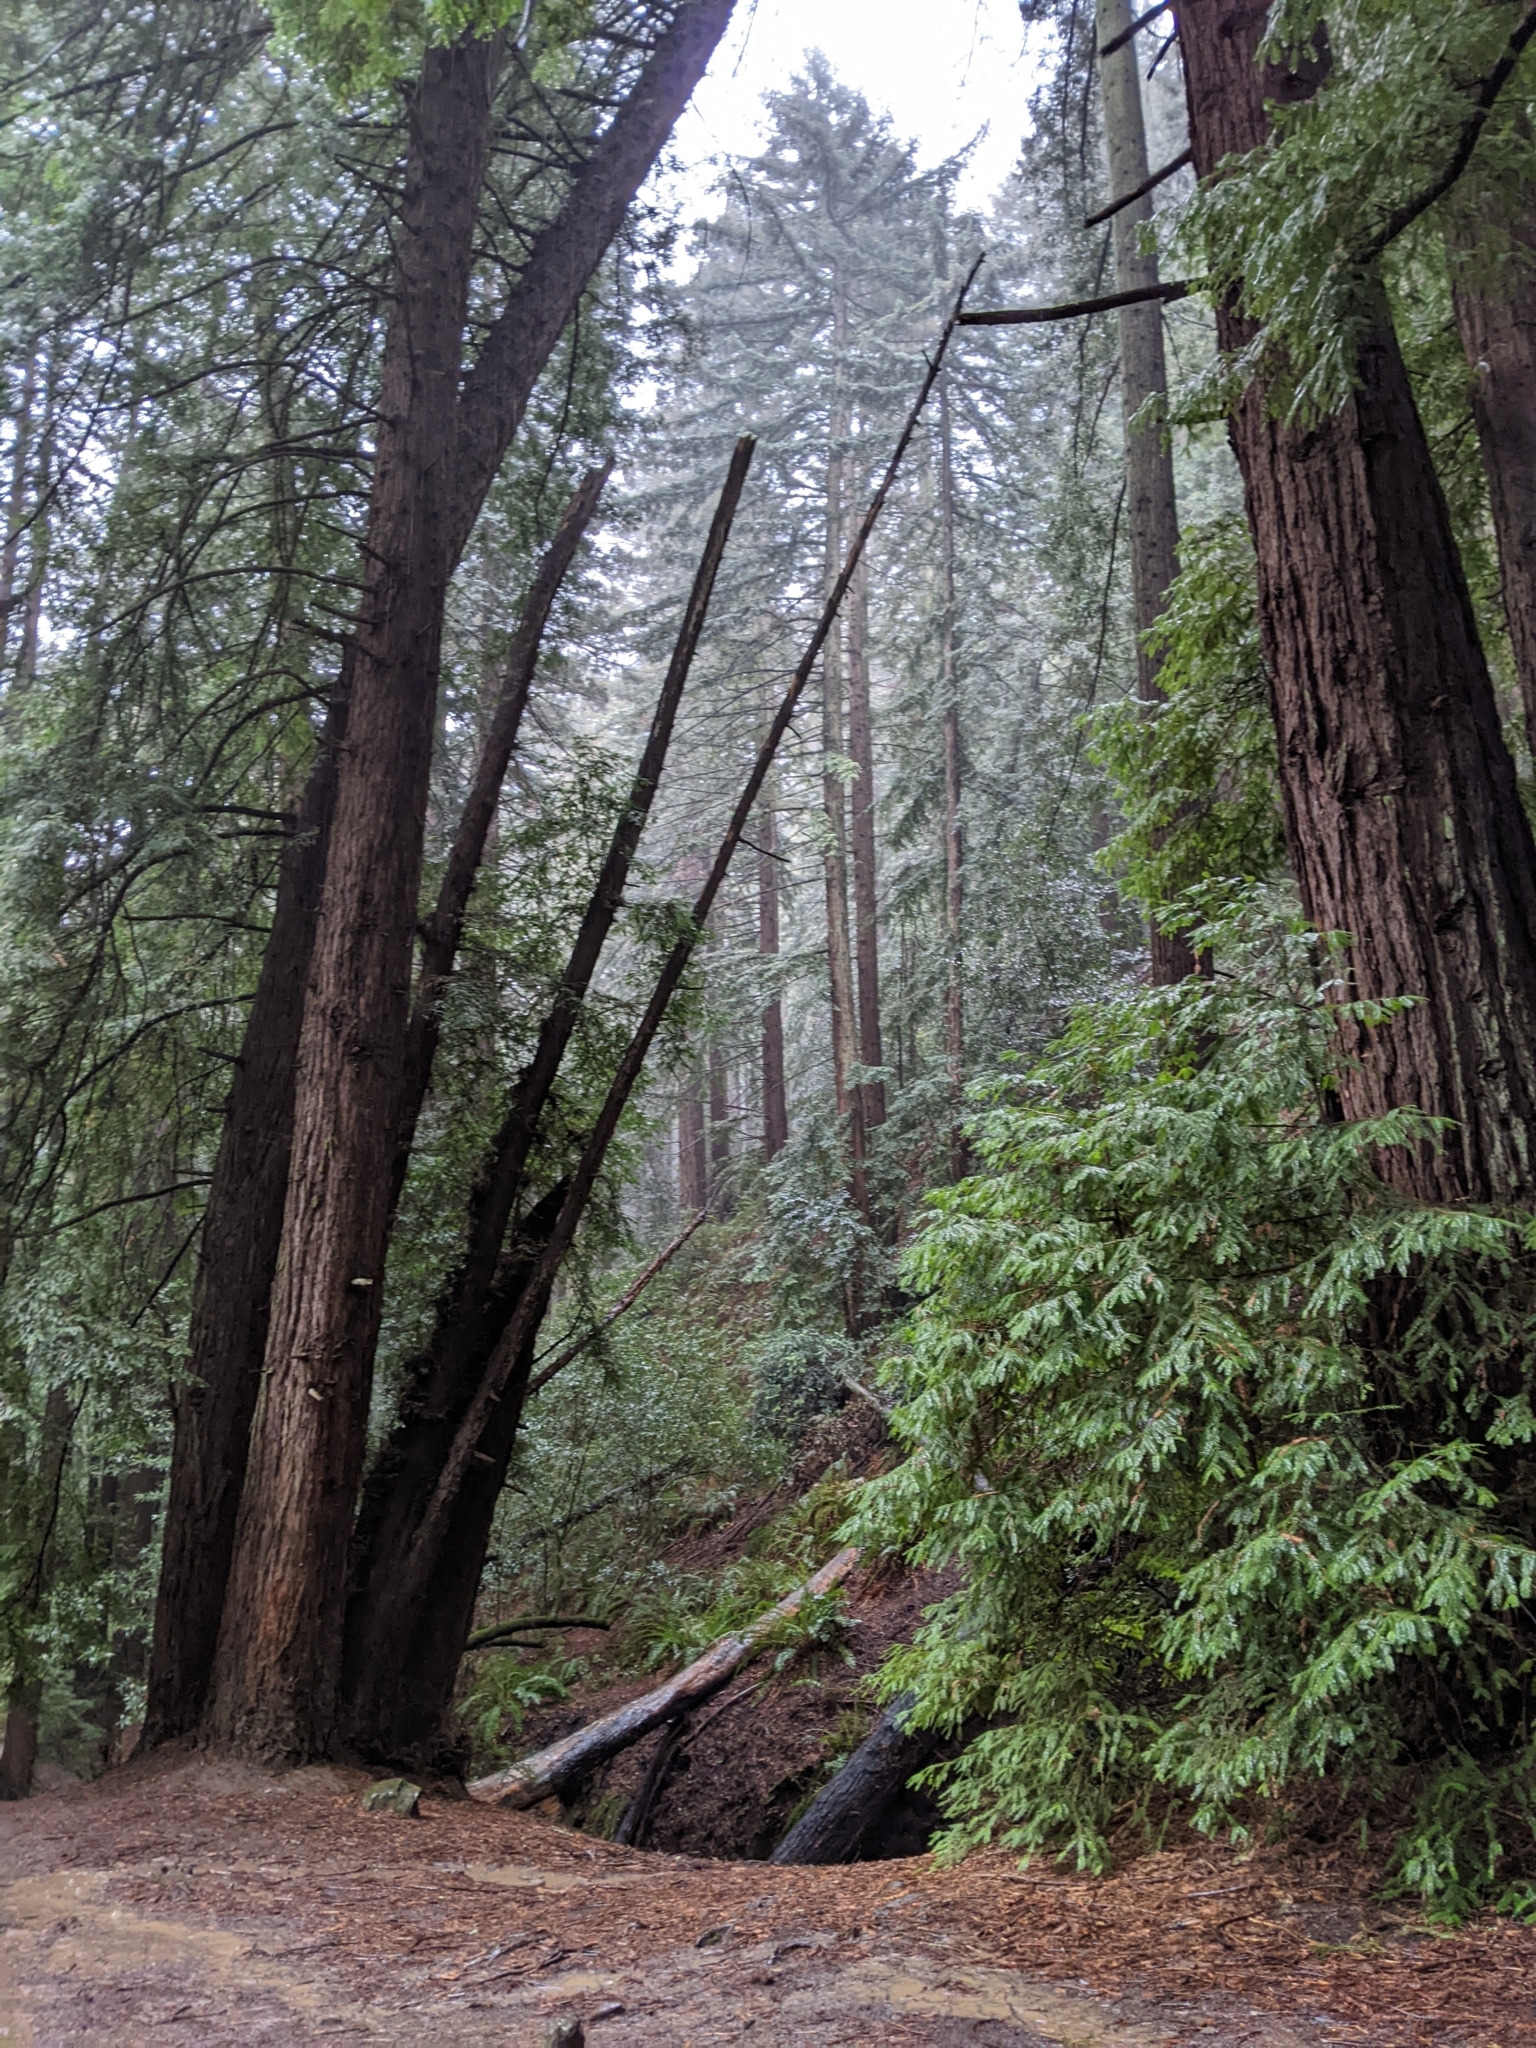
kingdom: Plantae
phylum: Tracheophyta
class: Pinopsida
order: Pinales
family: Cupressaceae
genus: Sequoia
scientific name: Sequoia sempervirens
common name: Coast redwood
